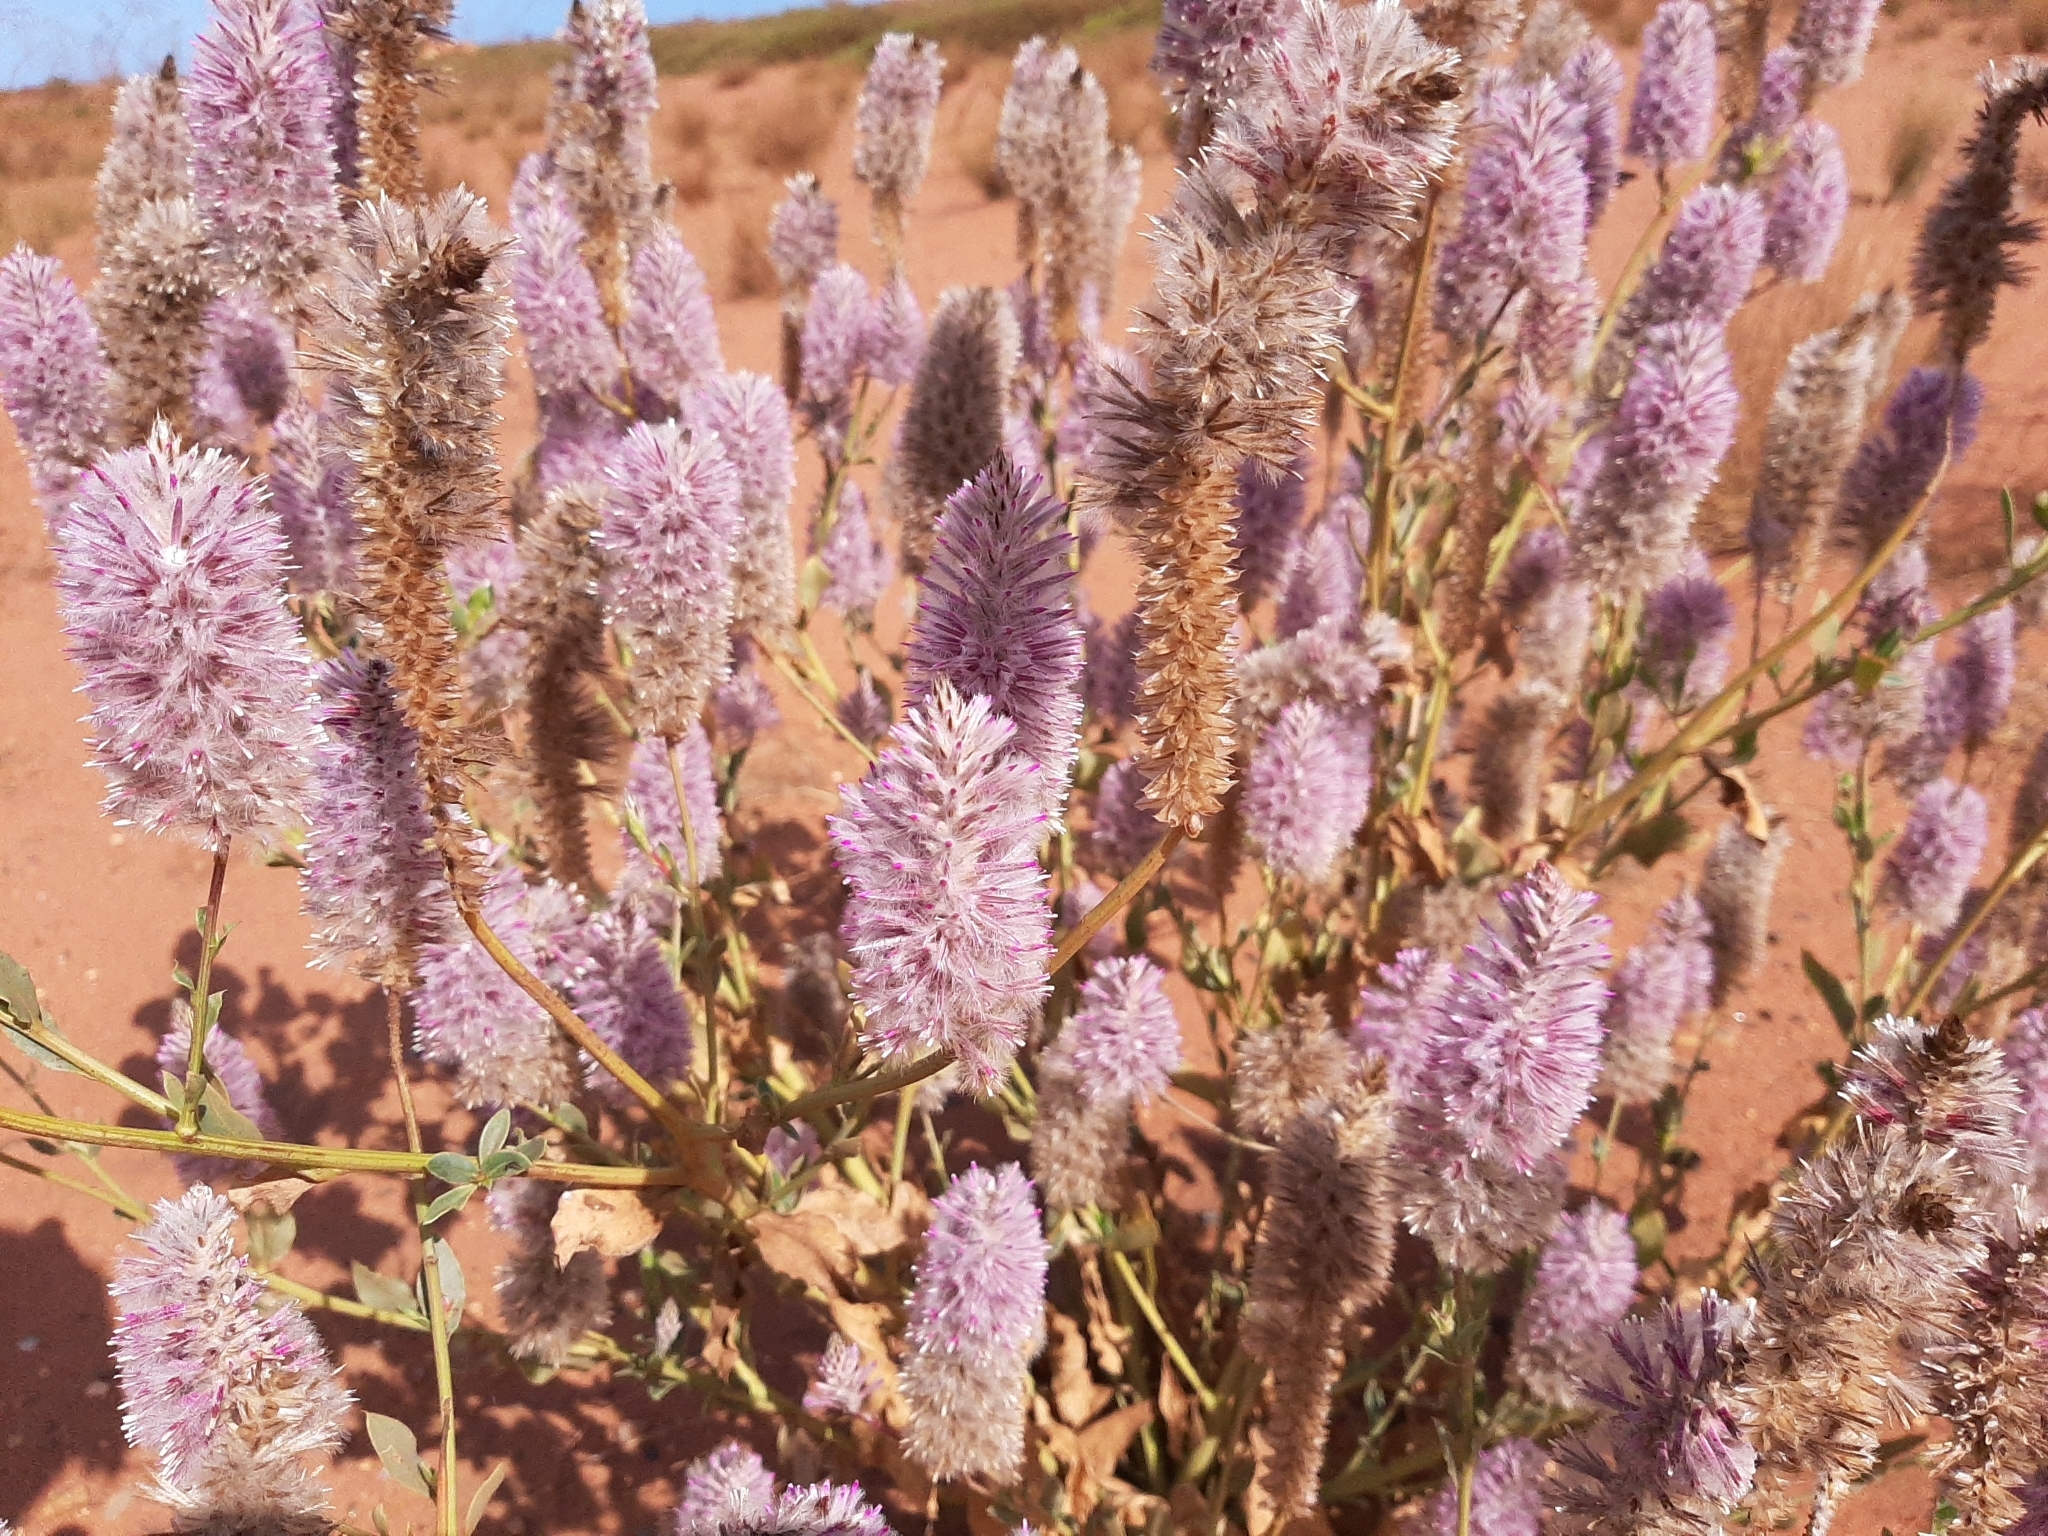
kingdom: Plantae
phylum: Tracheophyta
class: Magnoliopsida
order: Caryophyllales
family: Amaranthaceae
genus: Ptilotus
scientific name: Ptilotus exaltatus
